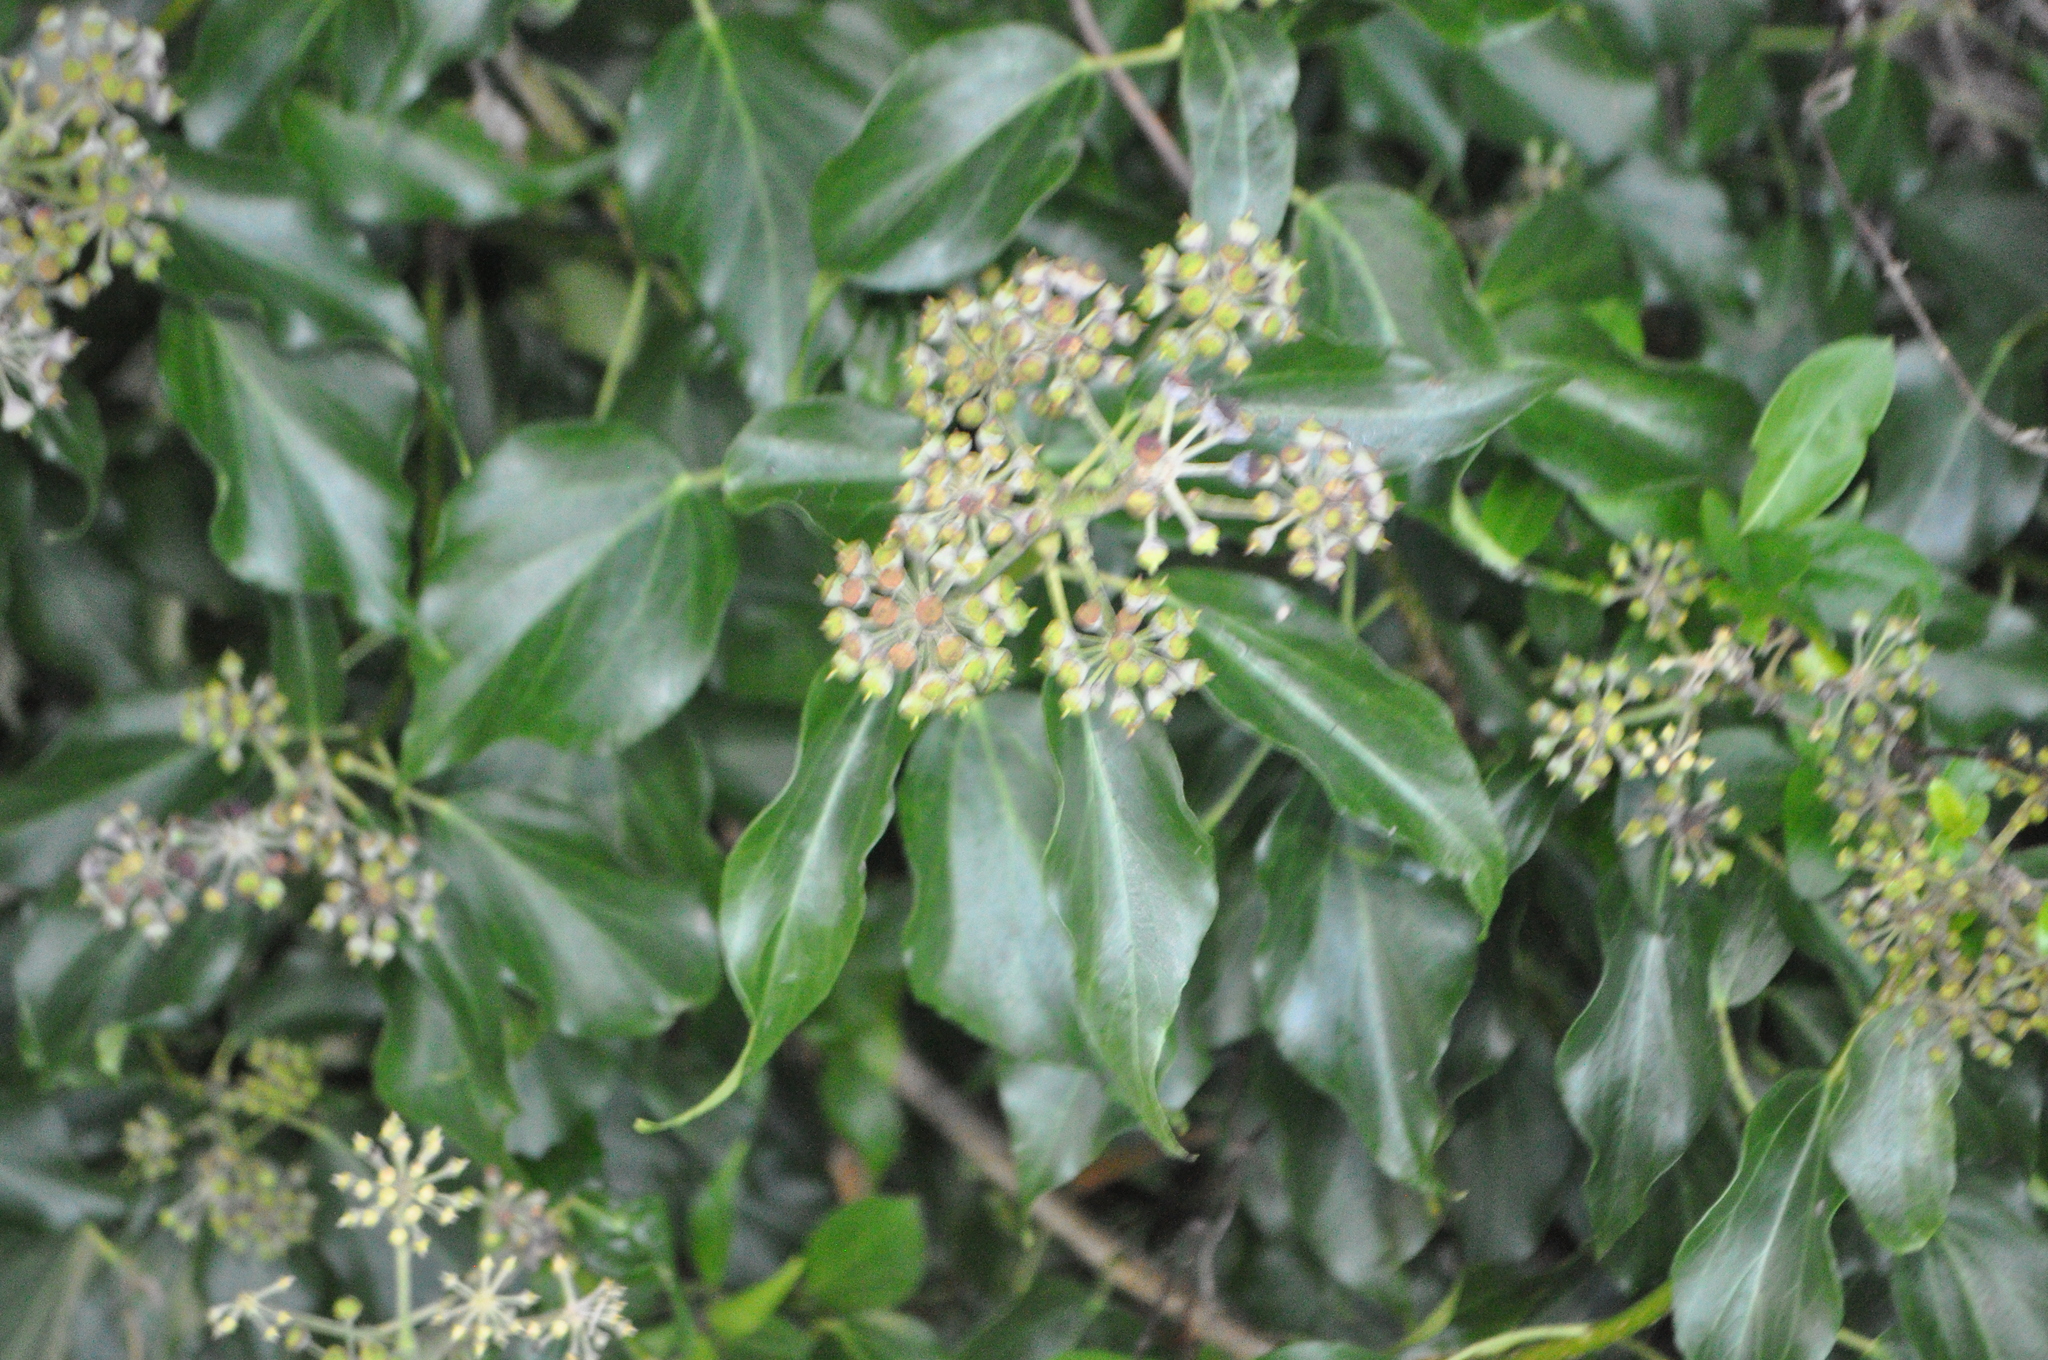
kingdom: Plantae
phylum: Tracheophyta
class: Magnoliopsida
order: Apiales
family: Araliaceae
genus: Hedera
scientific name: Hedera helix
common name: Ivy
